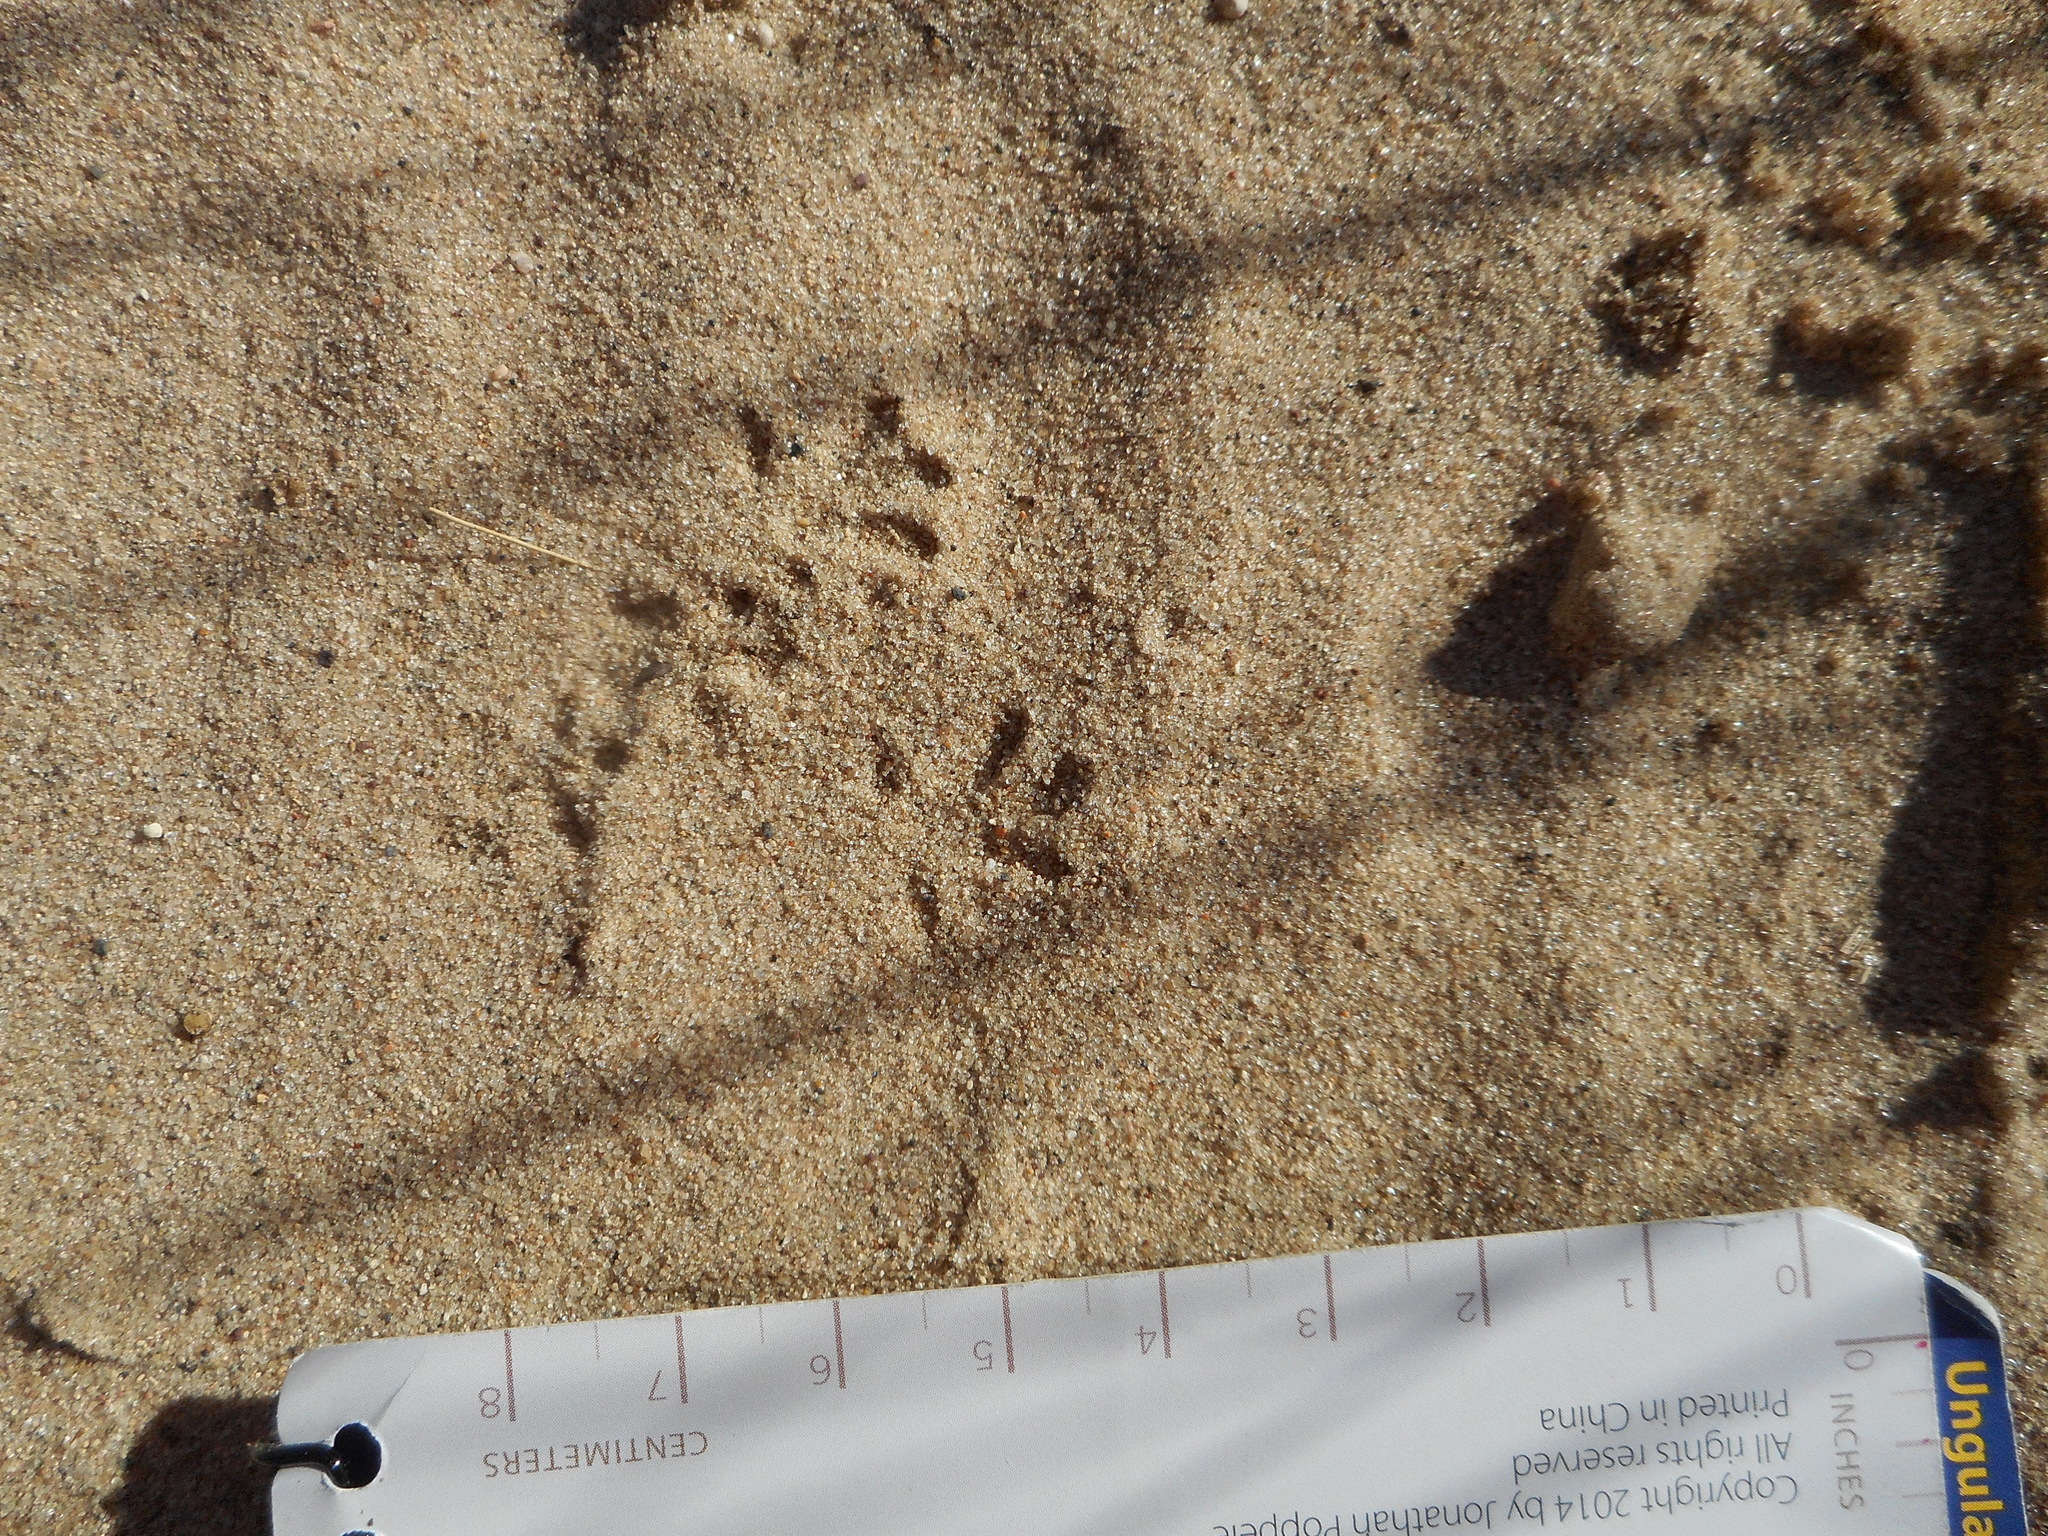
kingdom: Animalia
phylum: Chordata
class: Mammalia
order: Rodentia
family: Dipodidae
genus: Zapus
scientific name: Zapus hudsonius
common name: Meadow jumping mouse
